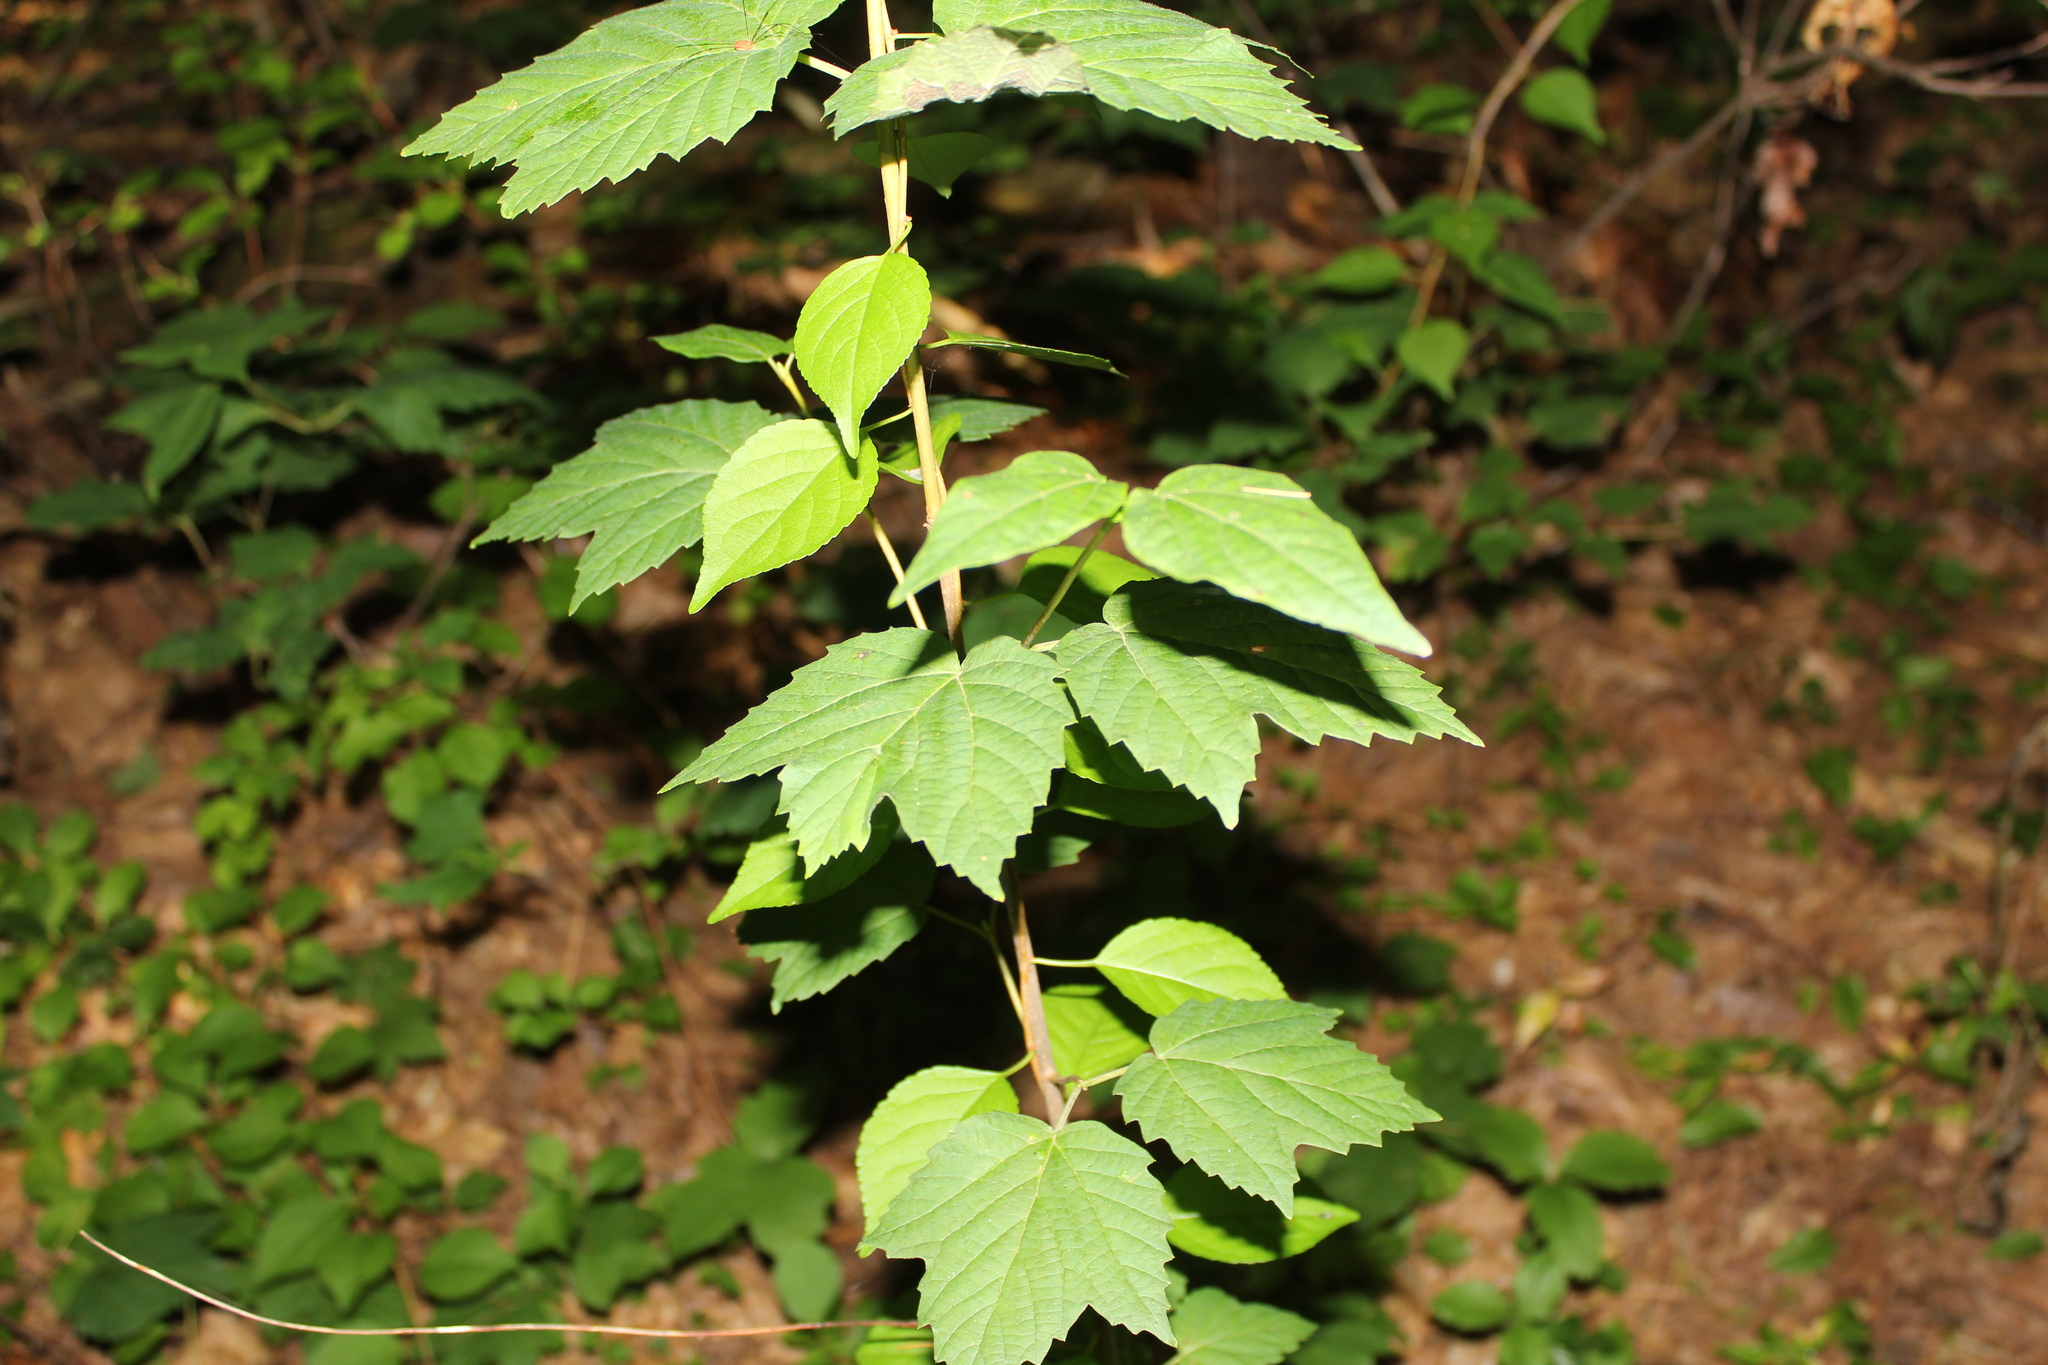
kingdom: Plantae
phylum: Tracheophyta
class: Magnoliopsida
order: Dipsacales
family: Viburnaceae
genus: Viburnum
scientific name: Viburnum acerifolium
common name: Dockmackie
